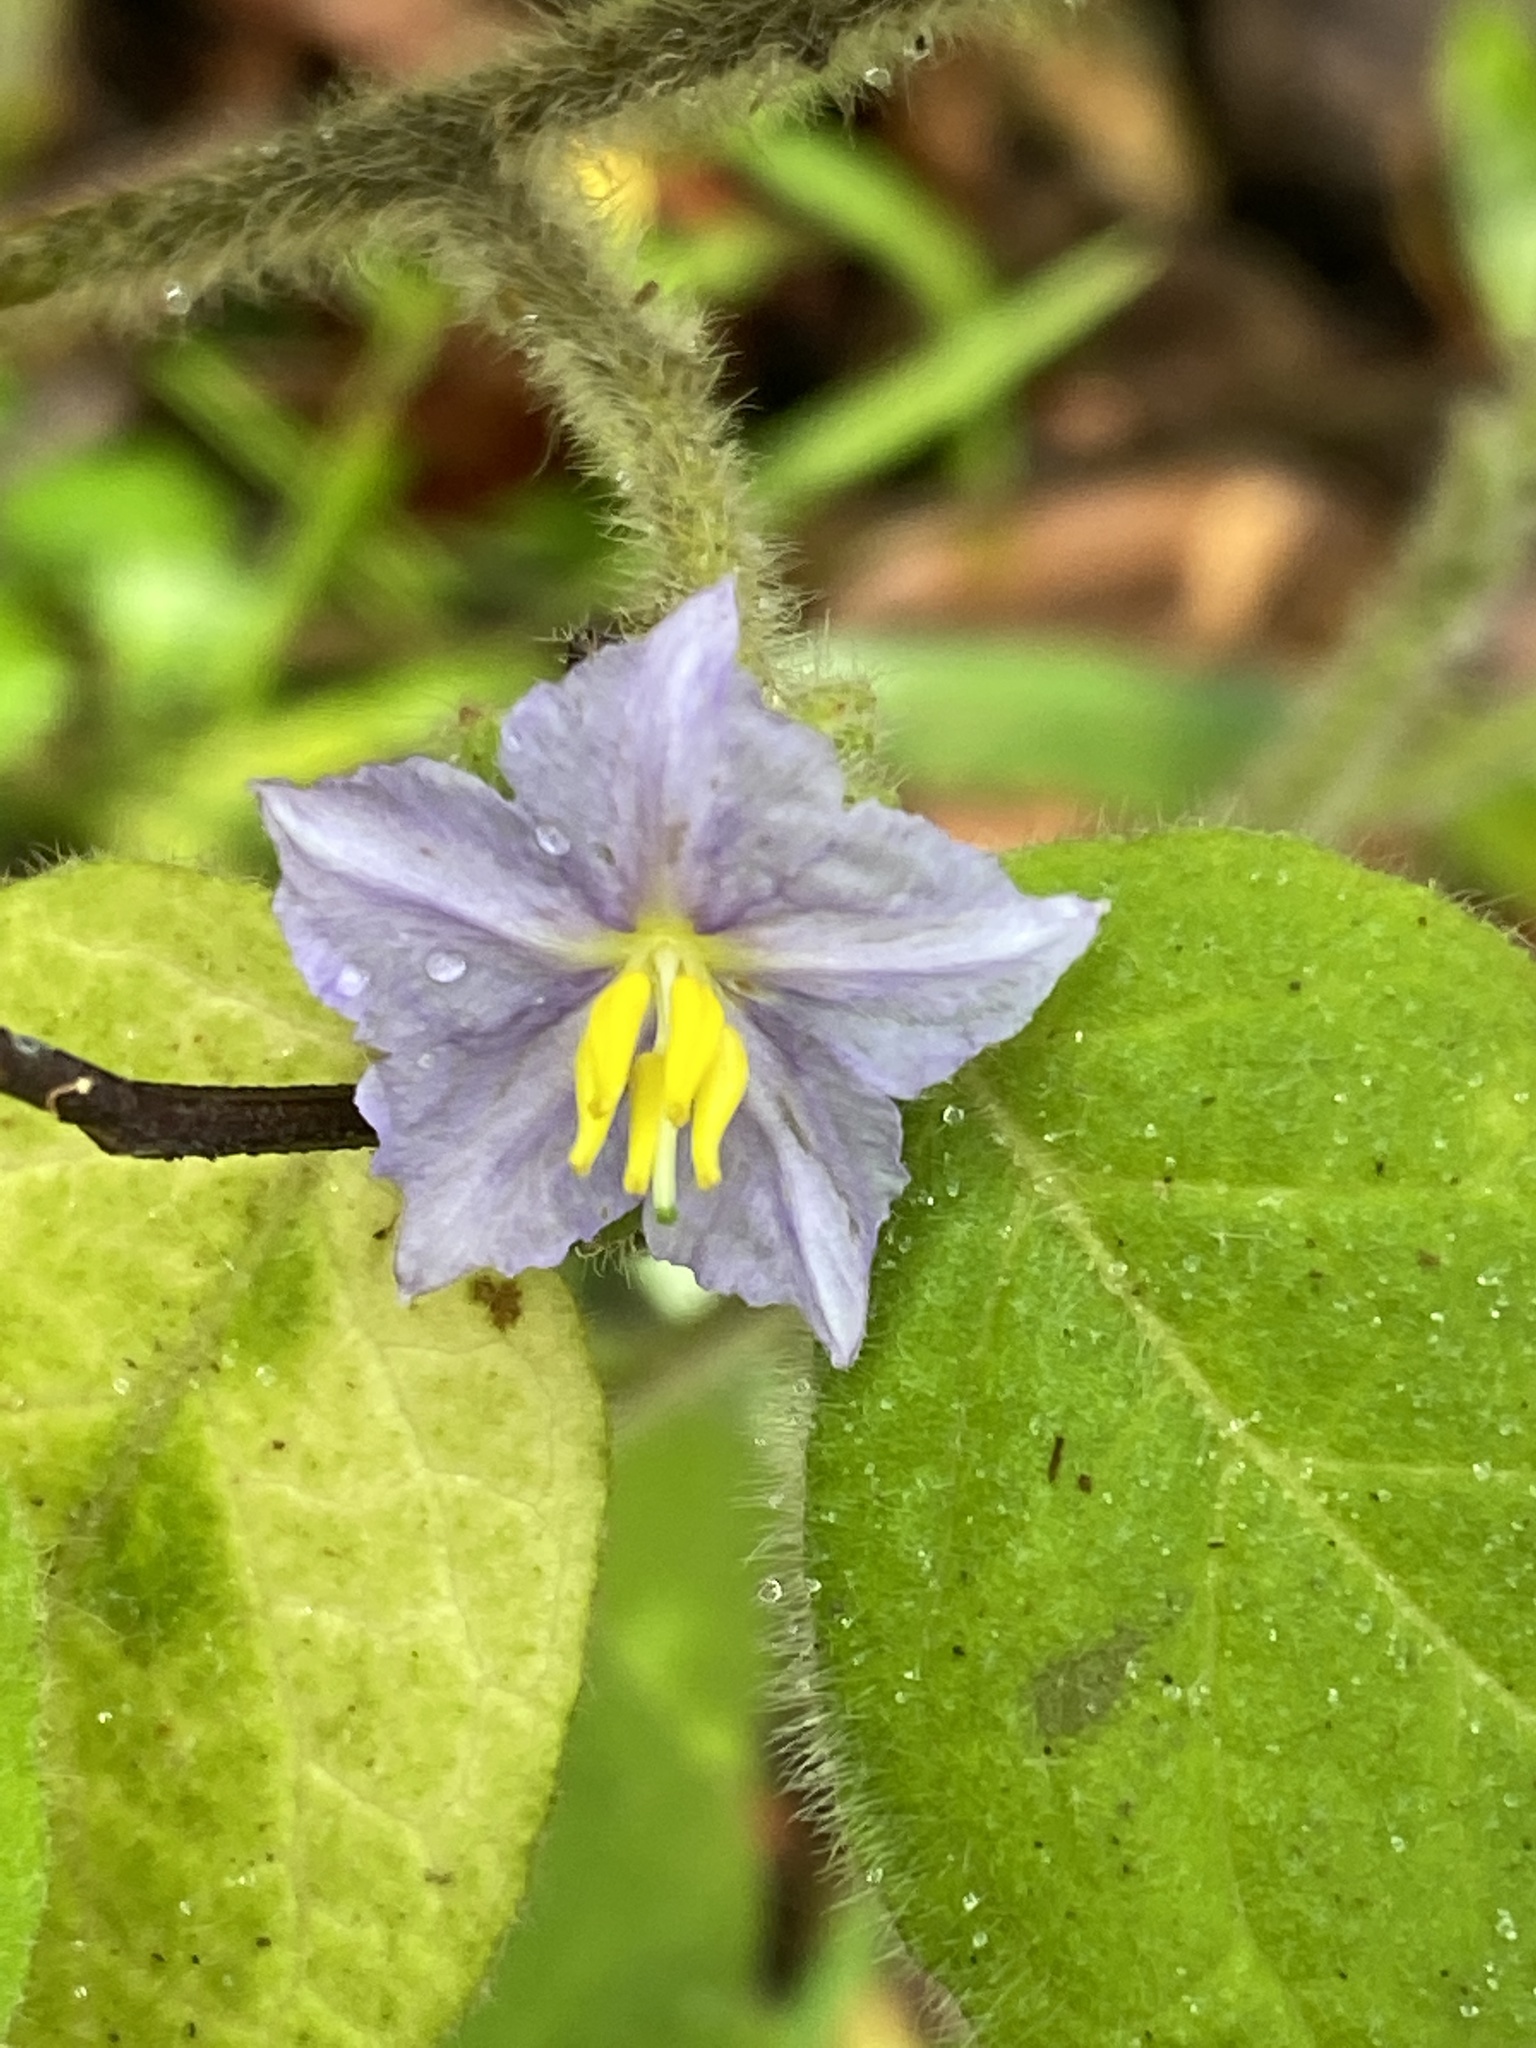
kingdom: Plantae
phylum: Tracheophyta
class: Magnoliopsida
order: Solanales
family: Solanaceae
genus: Solanum
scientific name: Solanum densevestitum
